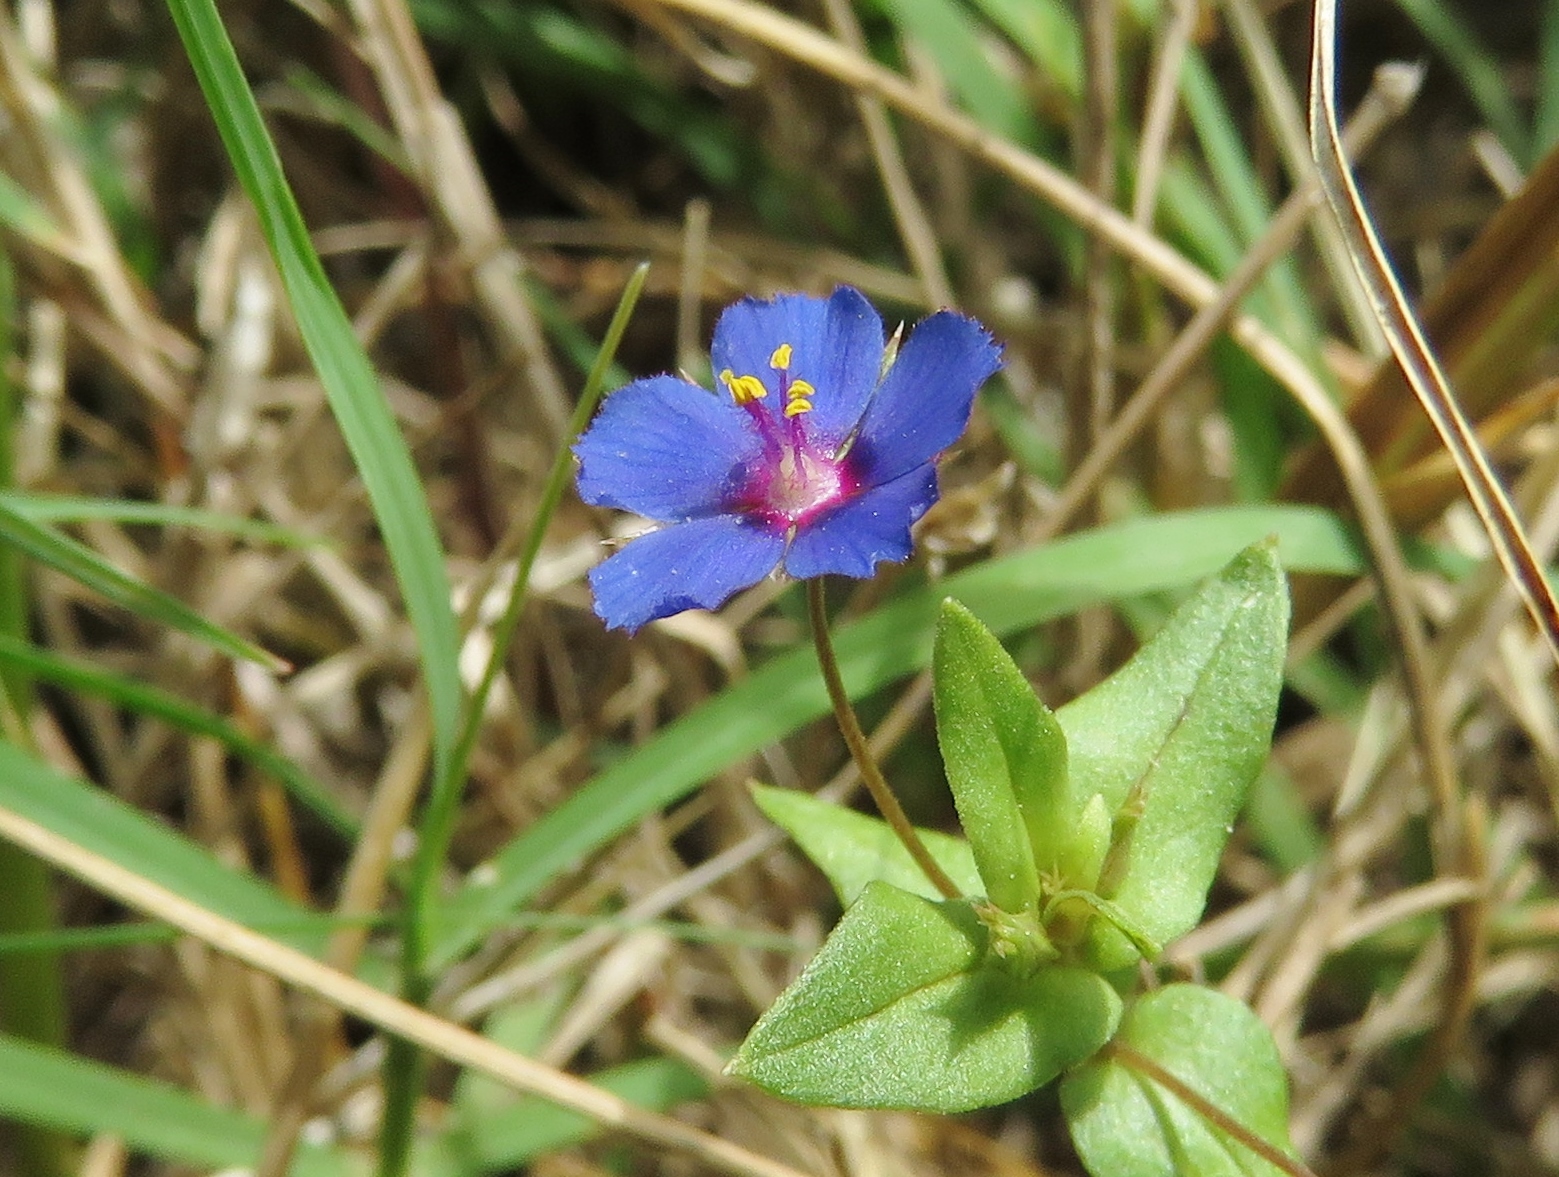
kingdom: Plantae
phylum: Tracheophyta
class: Magnoliopsida
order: Ericales
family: Primulaceae
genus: Lysimachia
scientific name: Lysimachia arvensis
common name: Scarlet pimpernel
